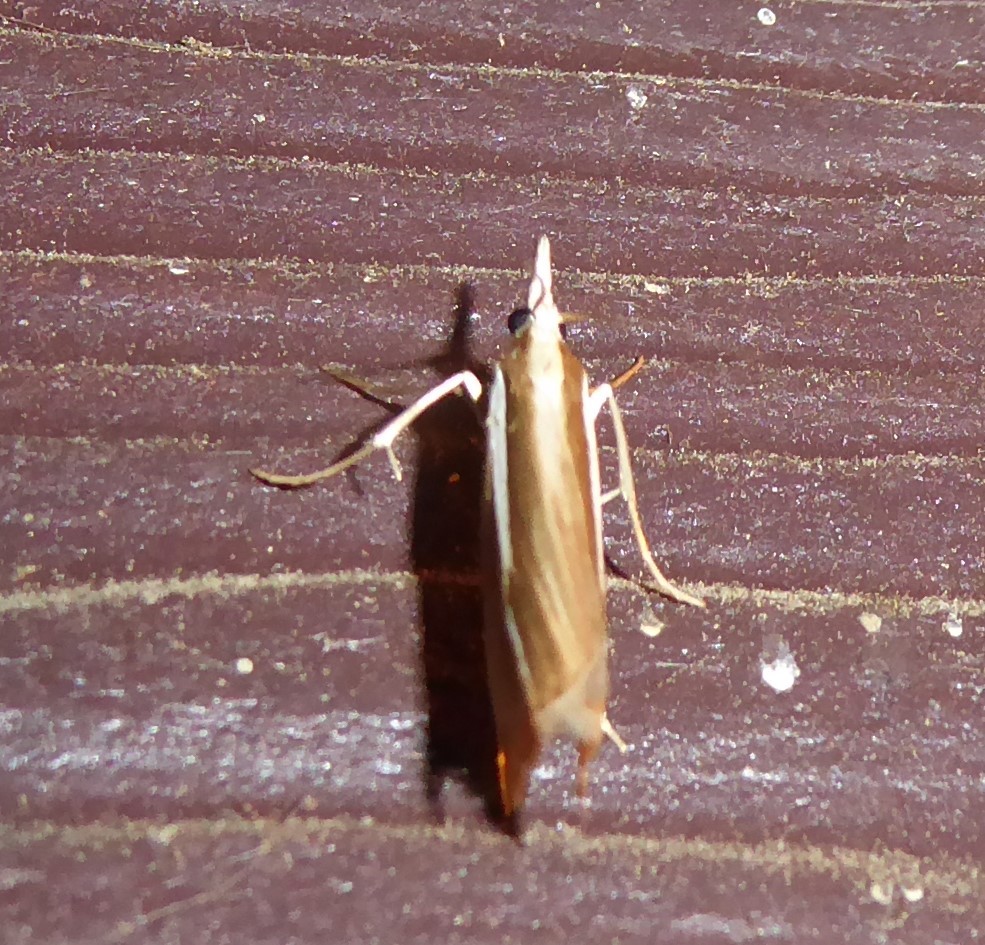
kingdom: Animalia
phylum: Arthropoda
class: Insecta
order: Lepidoptera
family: Crambidae
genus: Orocrambus
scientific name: Orocrambus ramosellus
